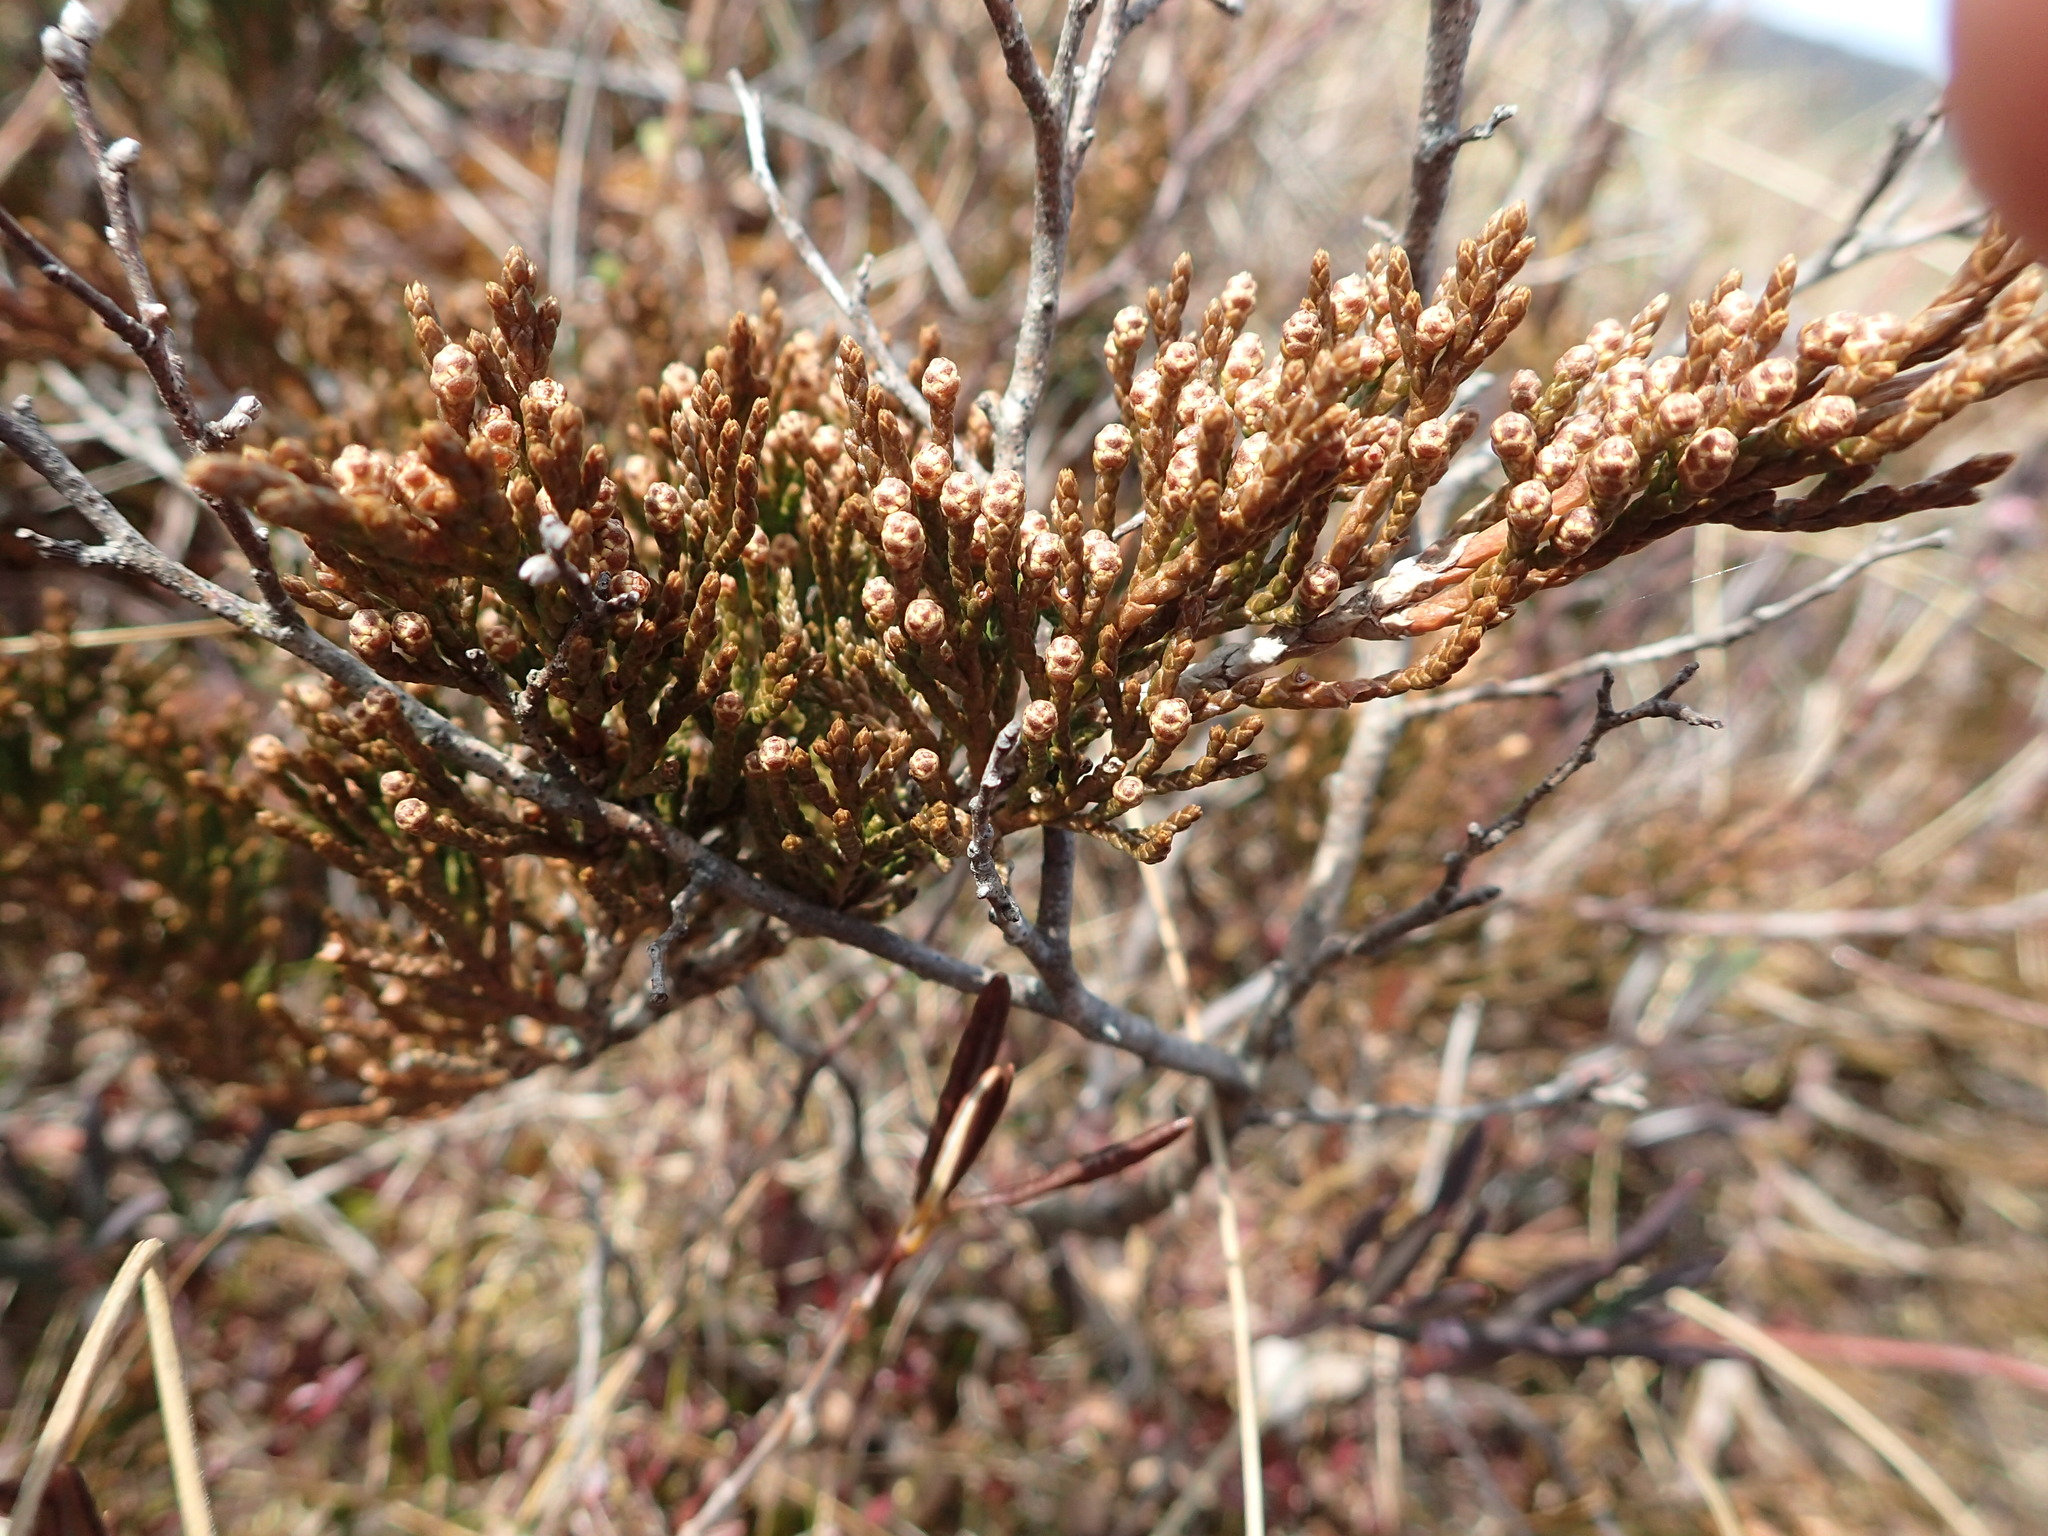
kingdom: Plantae
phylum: Tracheophyta
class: Pinopsida
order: Pinales
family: Cupressaceae
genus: Juniperus
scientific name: Juniperus horizontalis
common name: Creeping juniper
